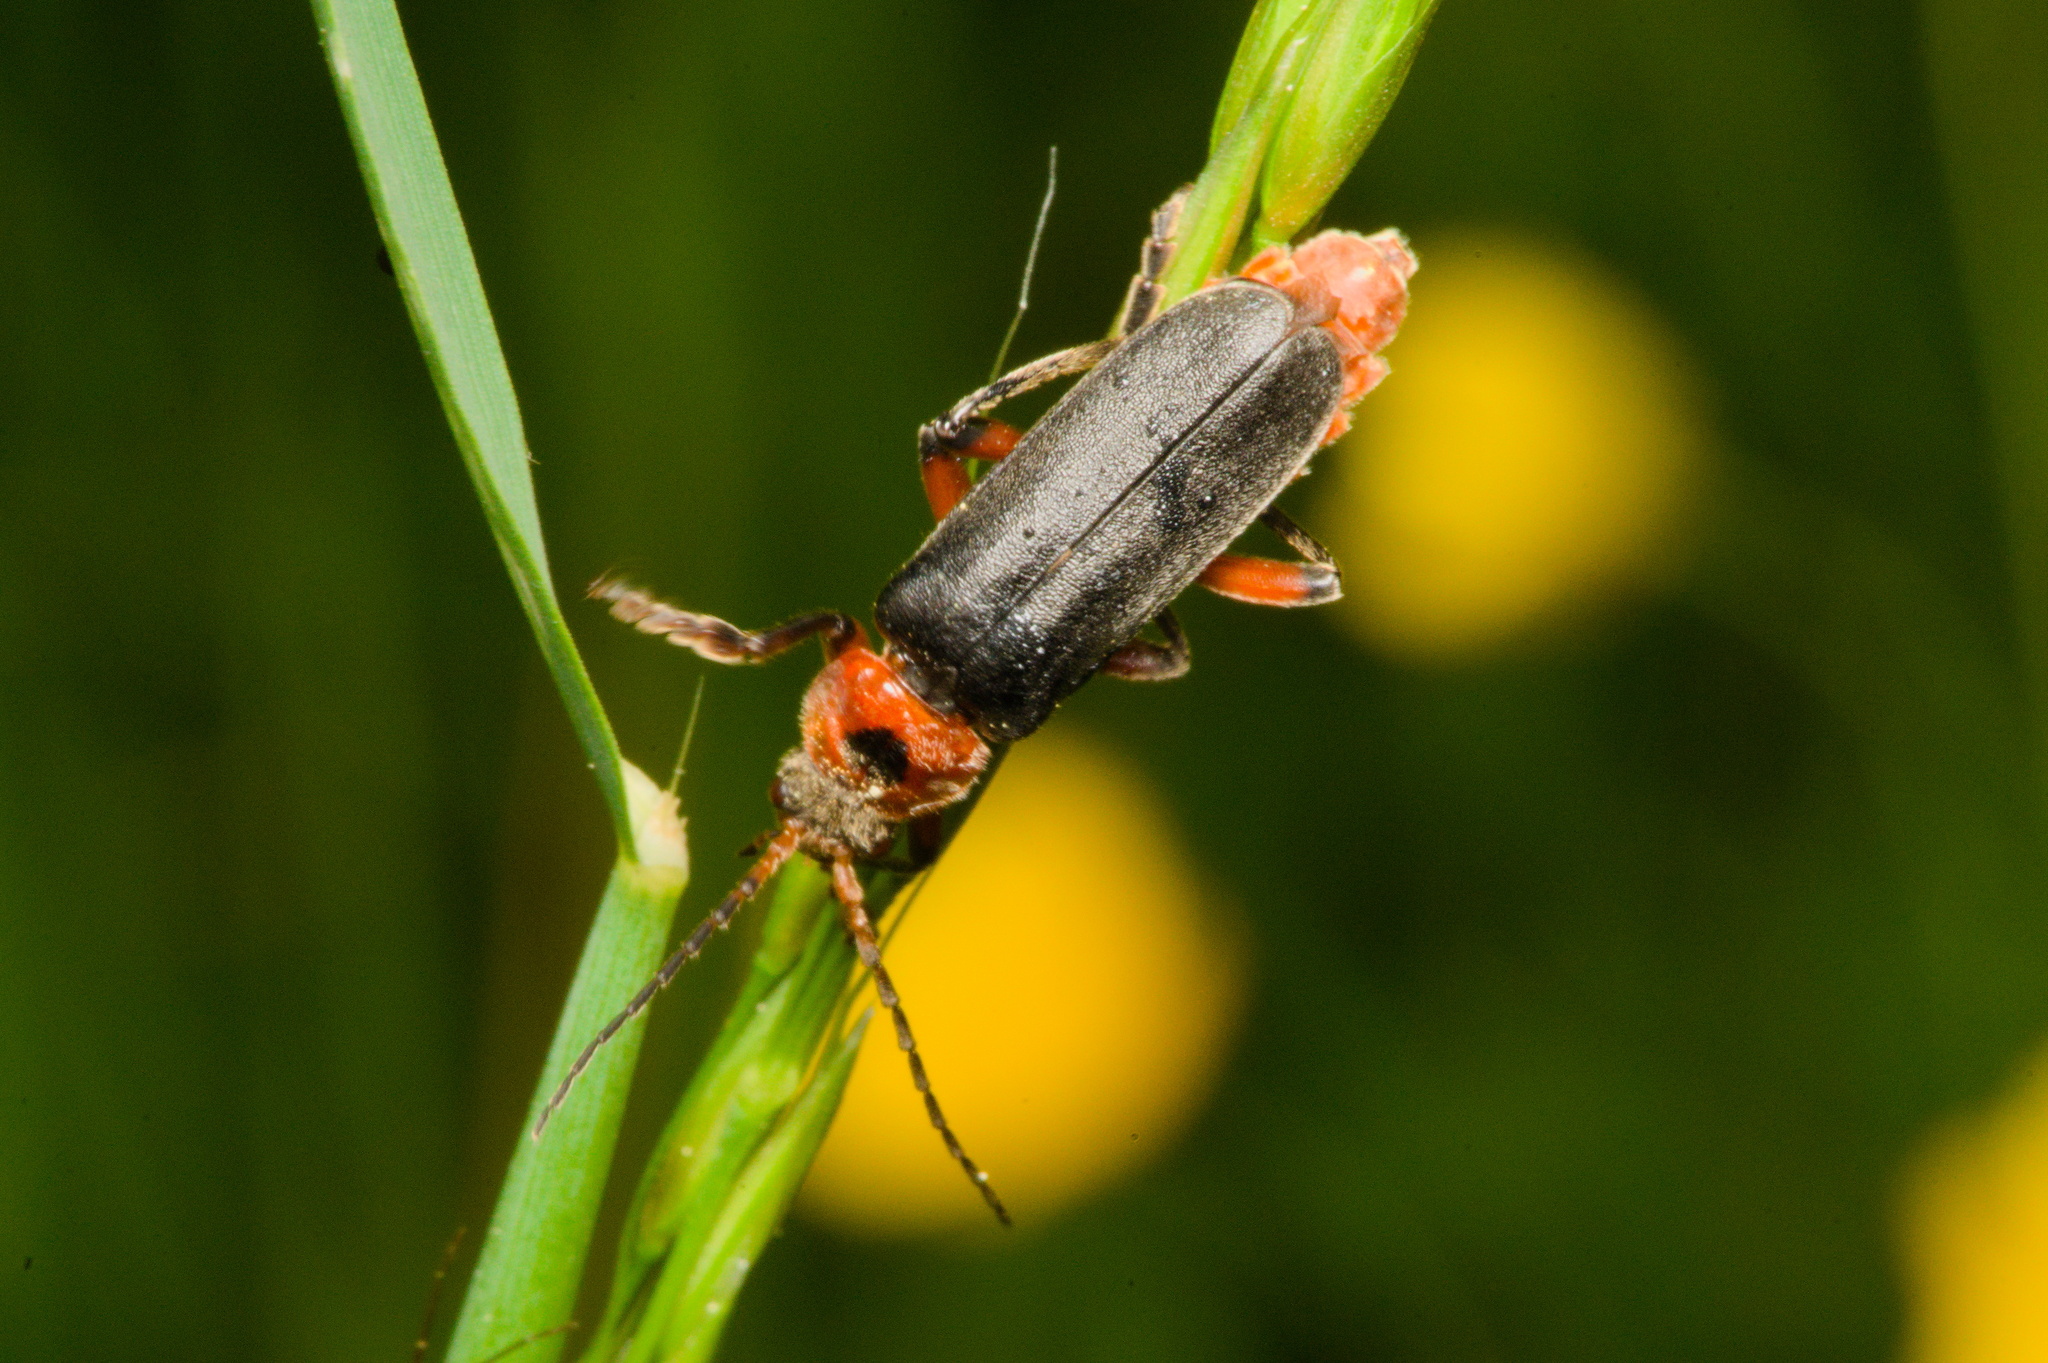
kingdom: Animalia
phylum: Arthropoda
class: Insecta
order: Coleoptera
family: Cantharidae
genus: Cantharis
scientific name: Cantharis rustica
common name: Soldier beetle
